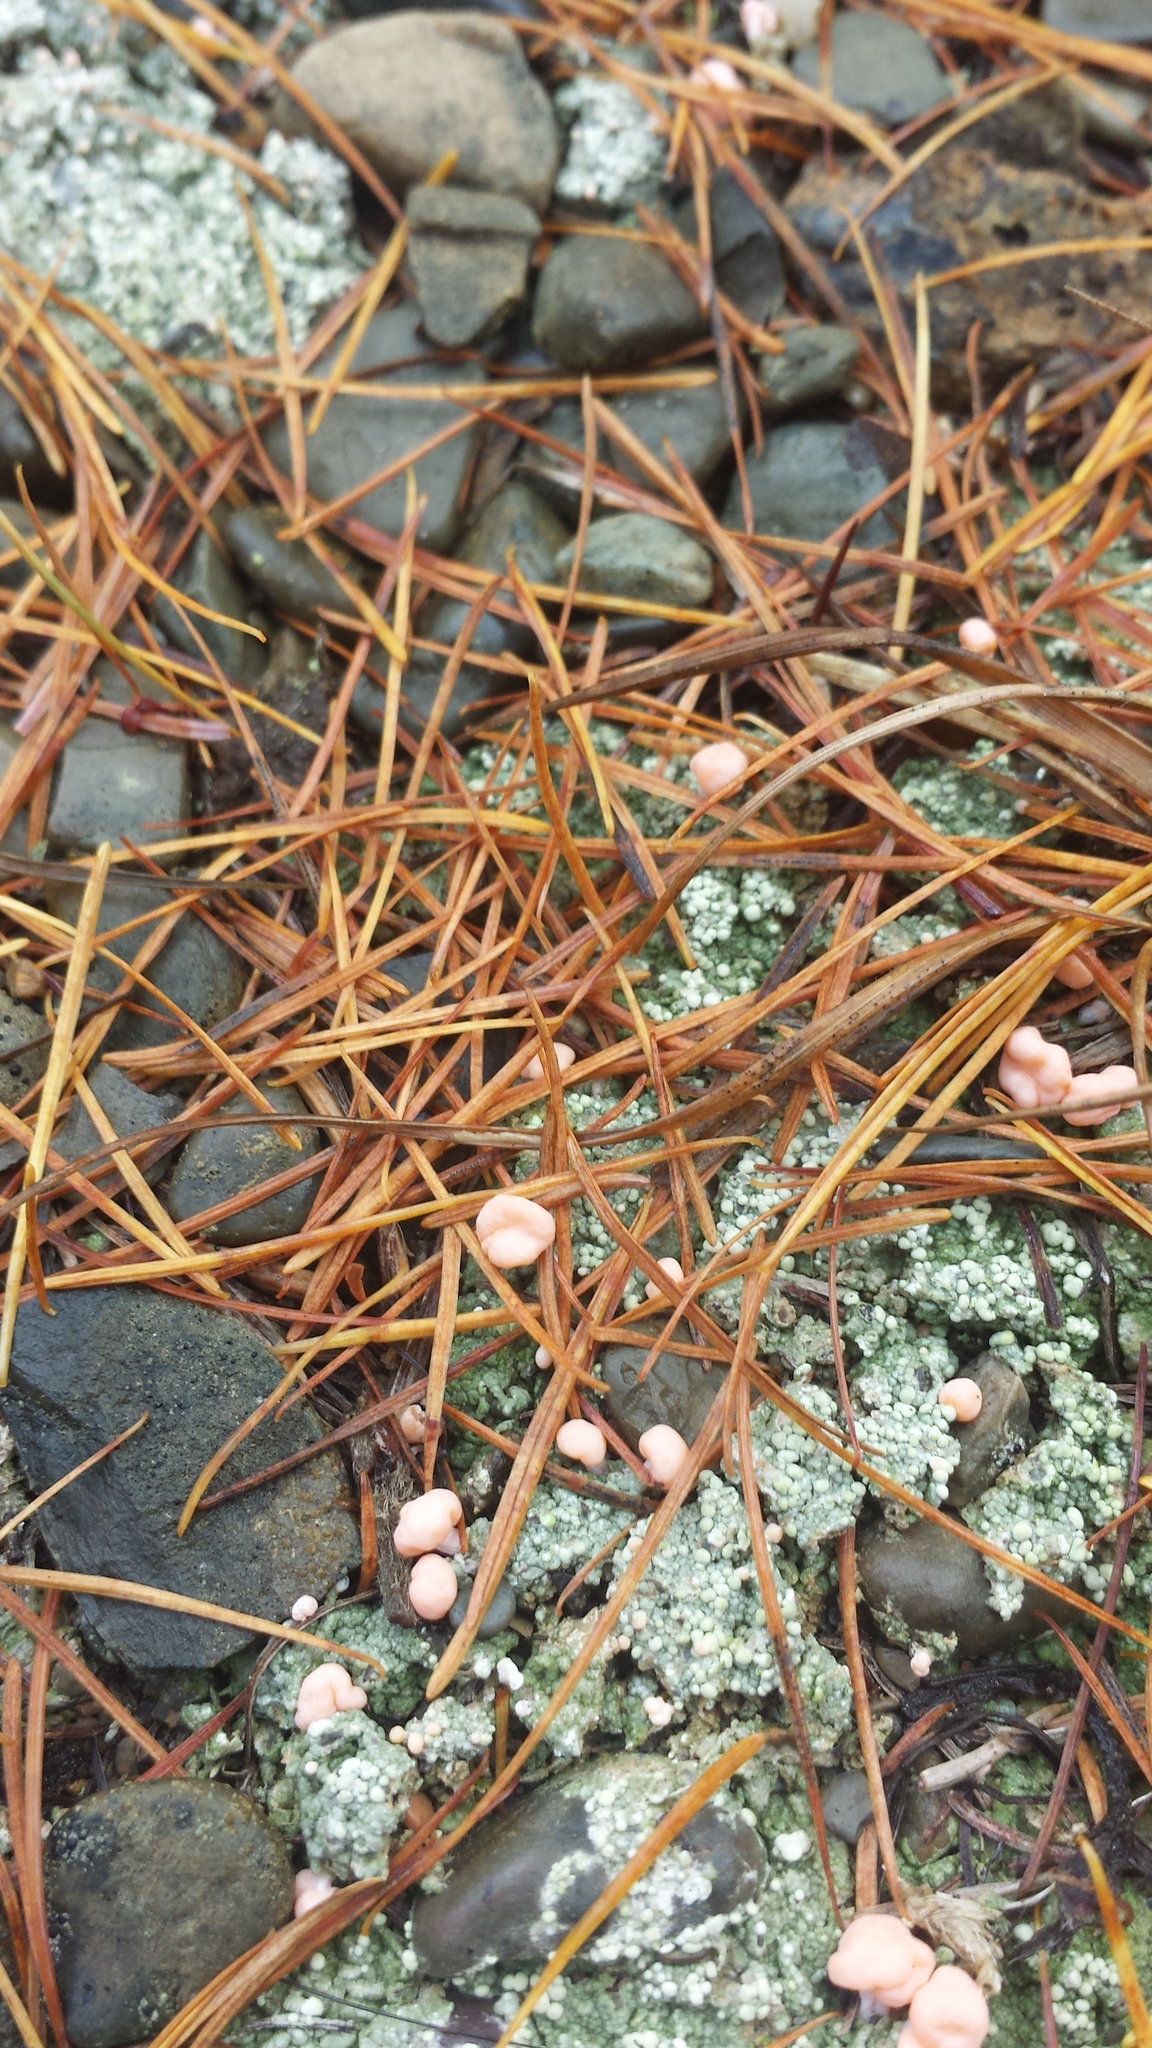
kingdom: Fungi
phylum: Ascomycota
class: Lecanoromycetes
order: Pertusariales
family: Icmadophilaceae
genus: Dibaeis
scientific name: Dibaeis baeomyces
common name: Pink earth lichen
